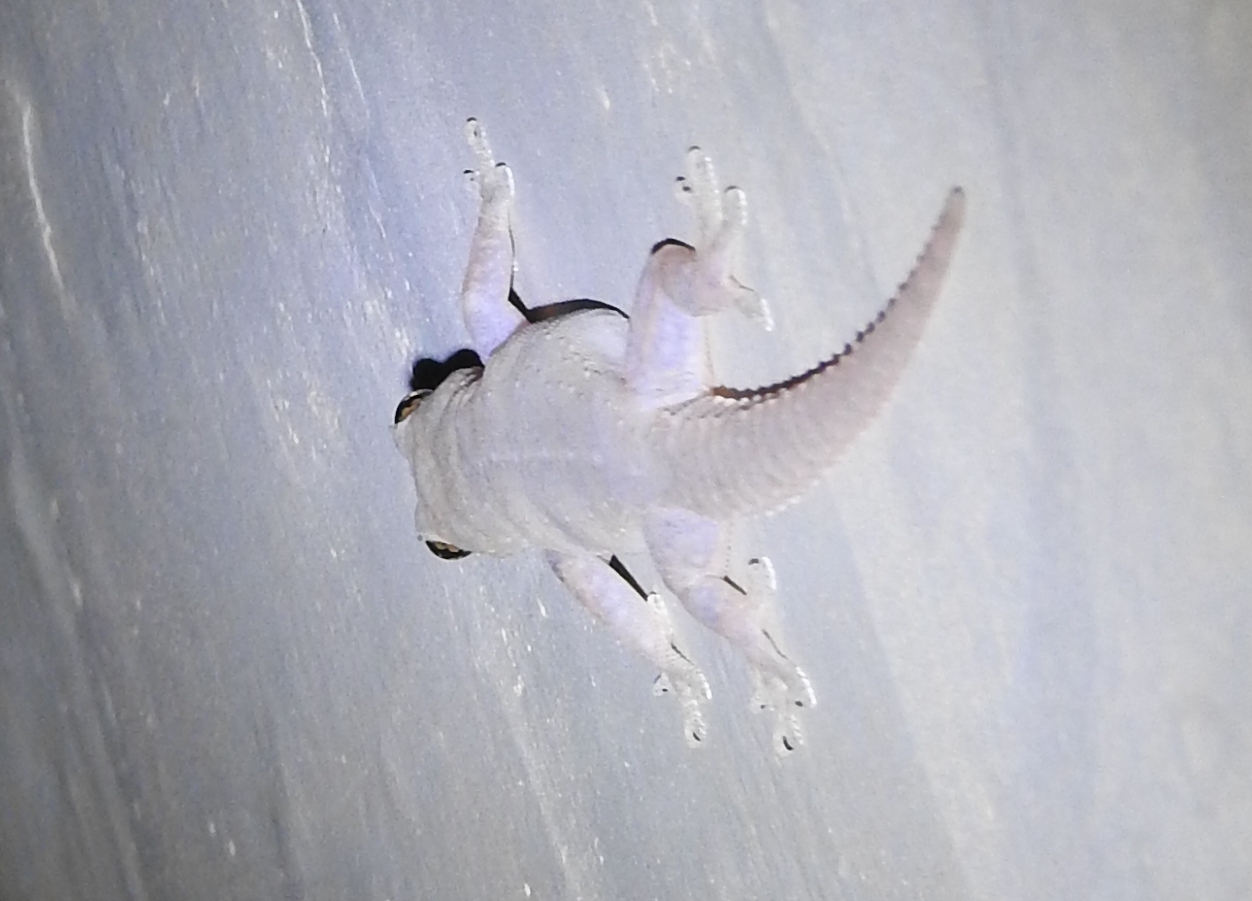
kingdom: Animalia
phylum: Chordata
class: Squamata
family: Gekkonidae
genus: Hemidactylus
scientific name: Hemidactylus frenatus
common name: Common house gecko
